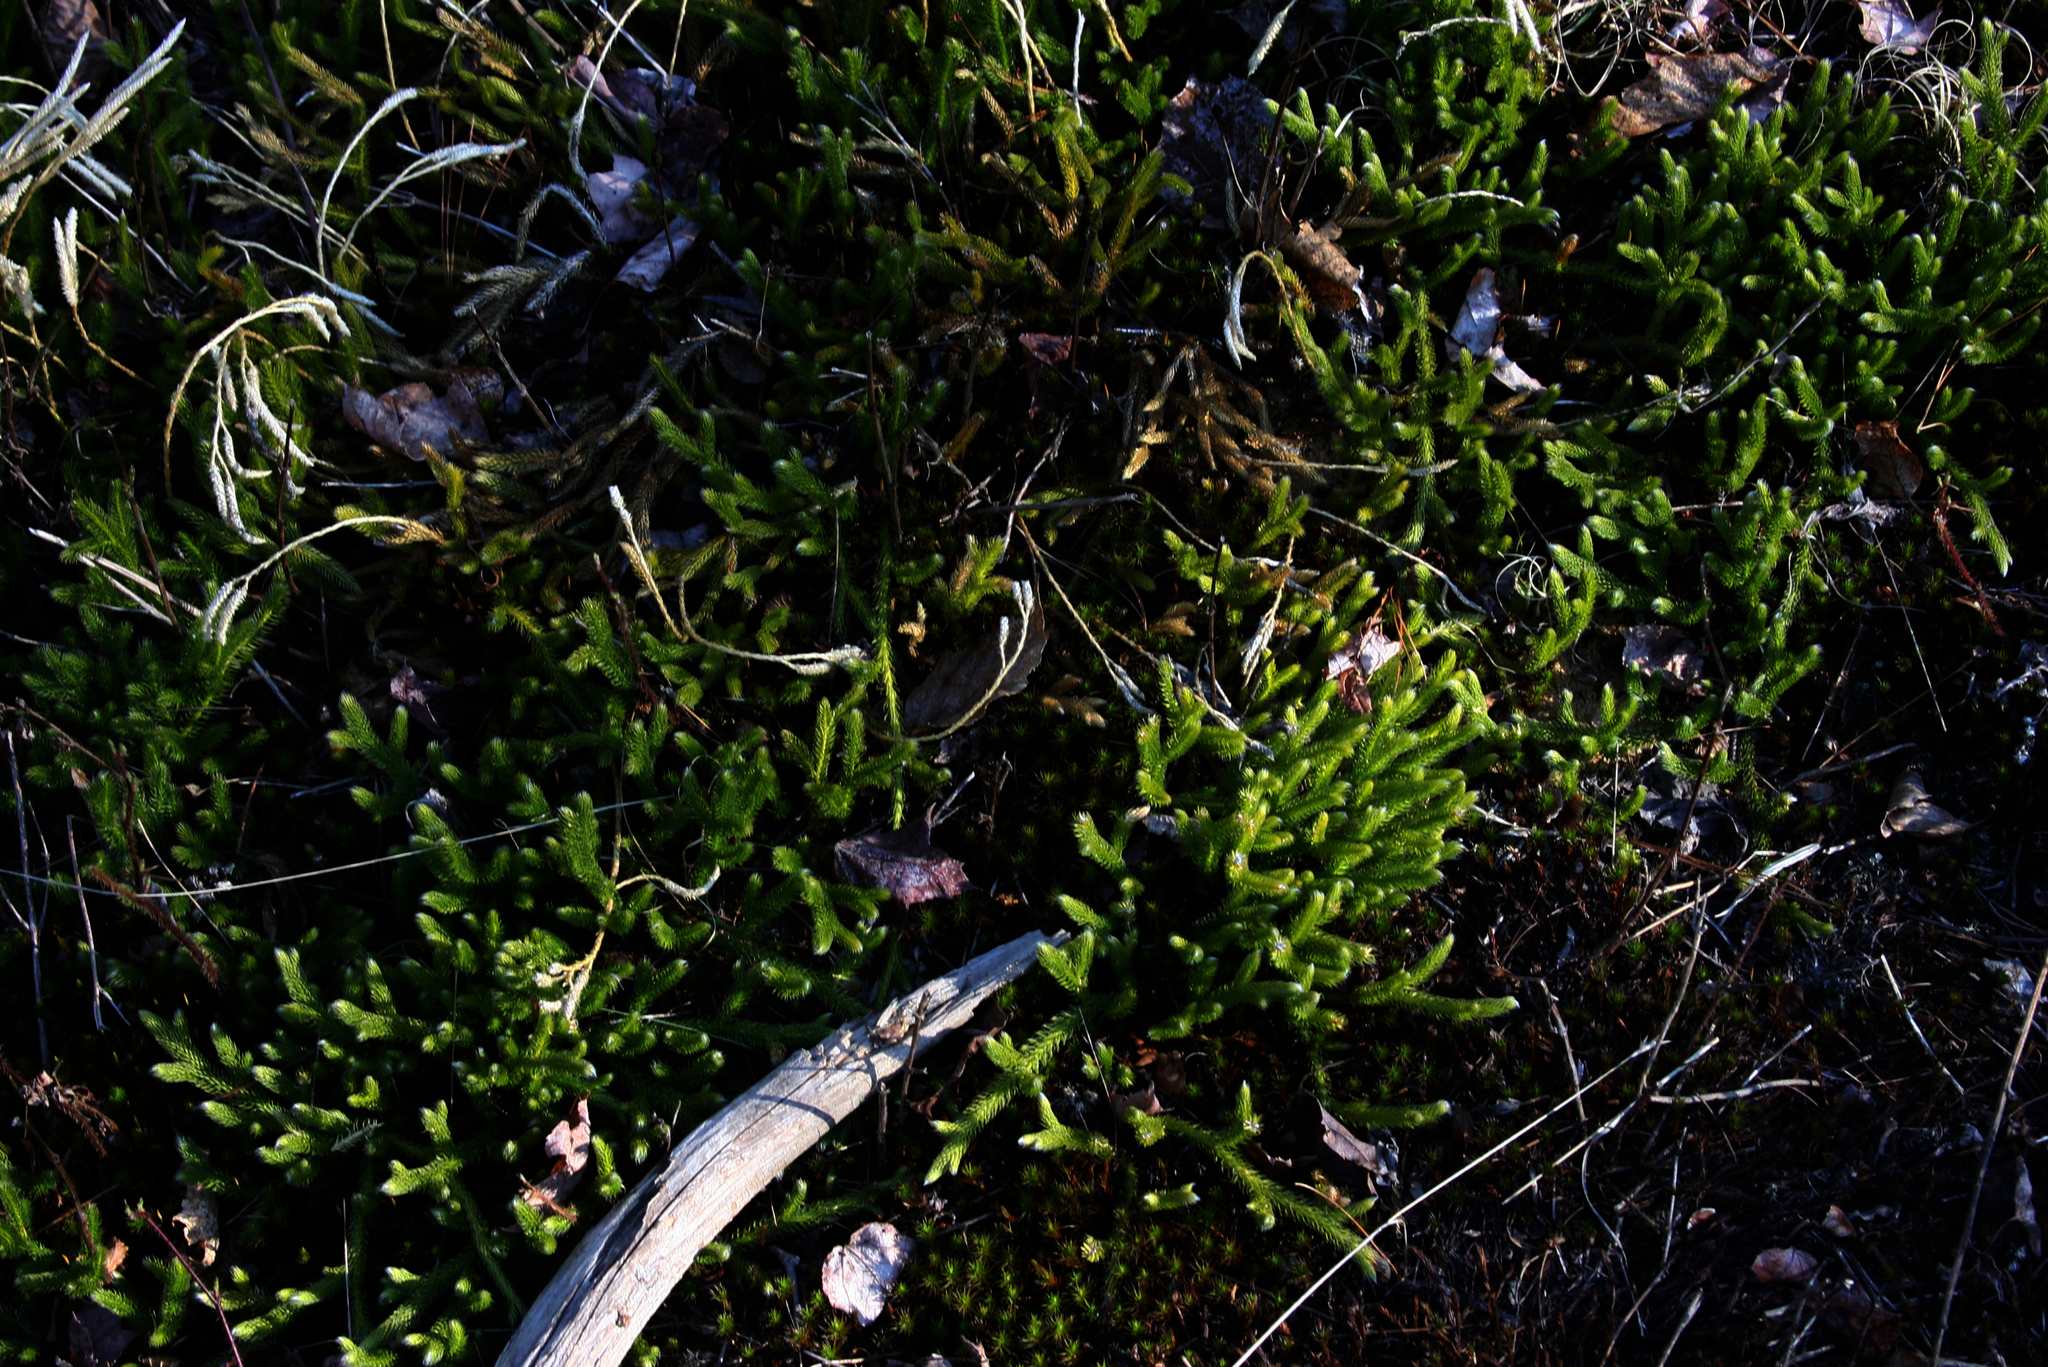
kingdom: Plantae
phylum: Tracheophyta
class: Lycopodiopsida
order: Lycopodiales
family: Lycopodiaceae
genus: Lycopodium
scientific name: Lycopodium clavatum
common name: Stag's-horn clubmoss
